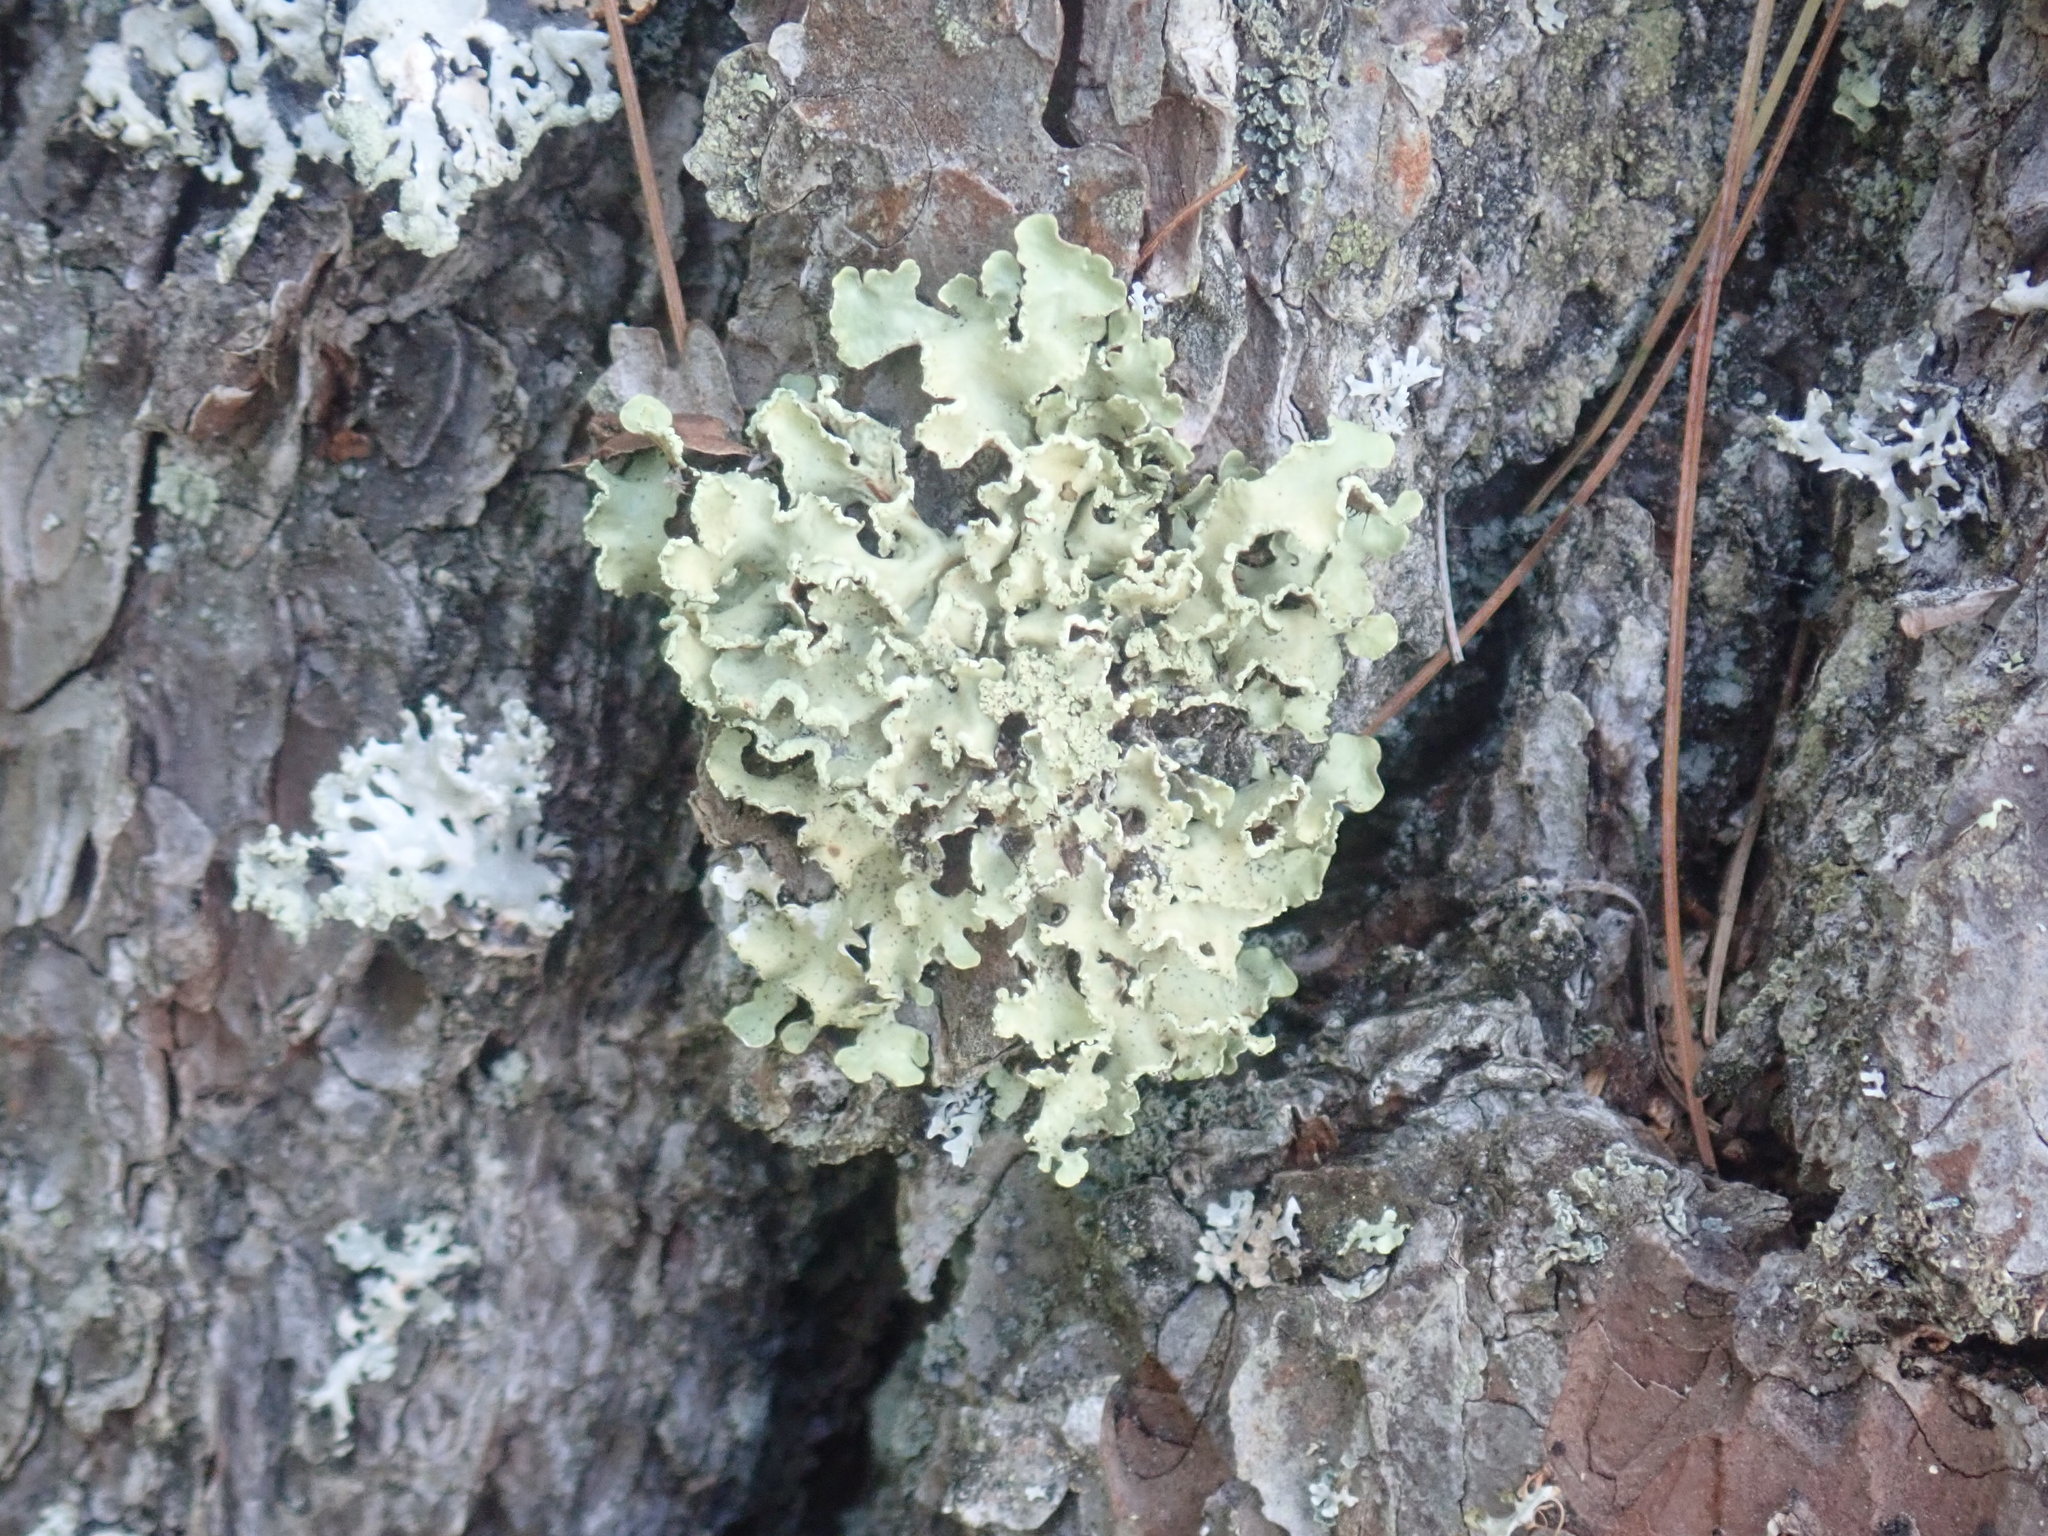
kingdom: Fungi
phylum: Ascomycota
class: Lecanoromycetes
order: Lecanorales
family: Parmeliaceae
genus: Usnocetraria
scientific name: Usnocetraria oakesiana
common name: Yellow ribbon lichen
